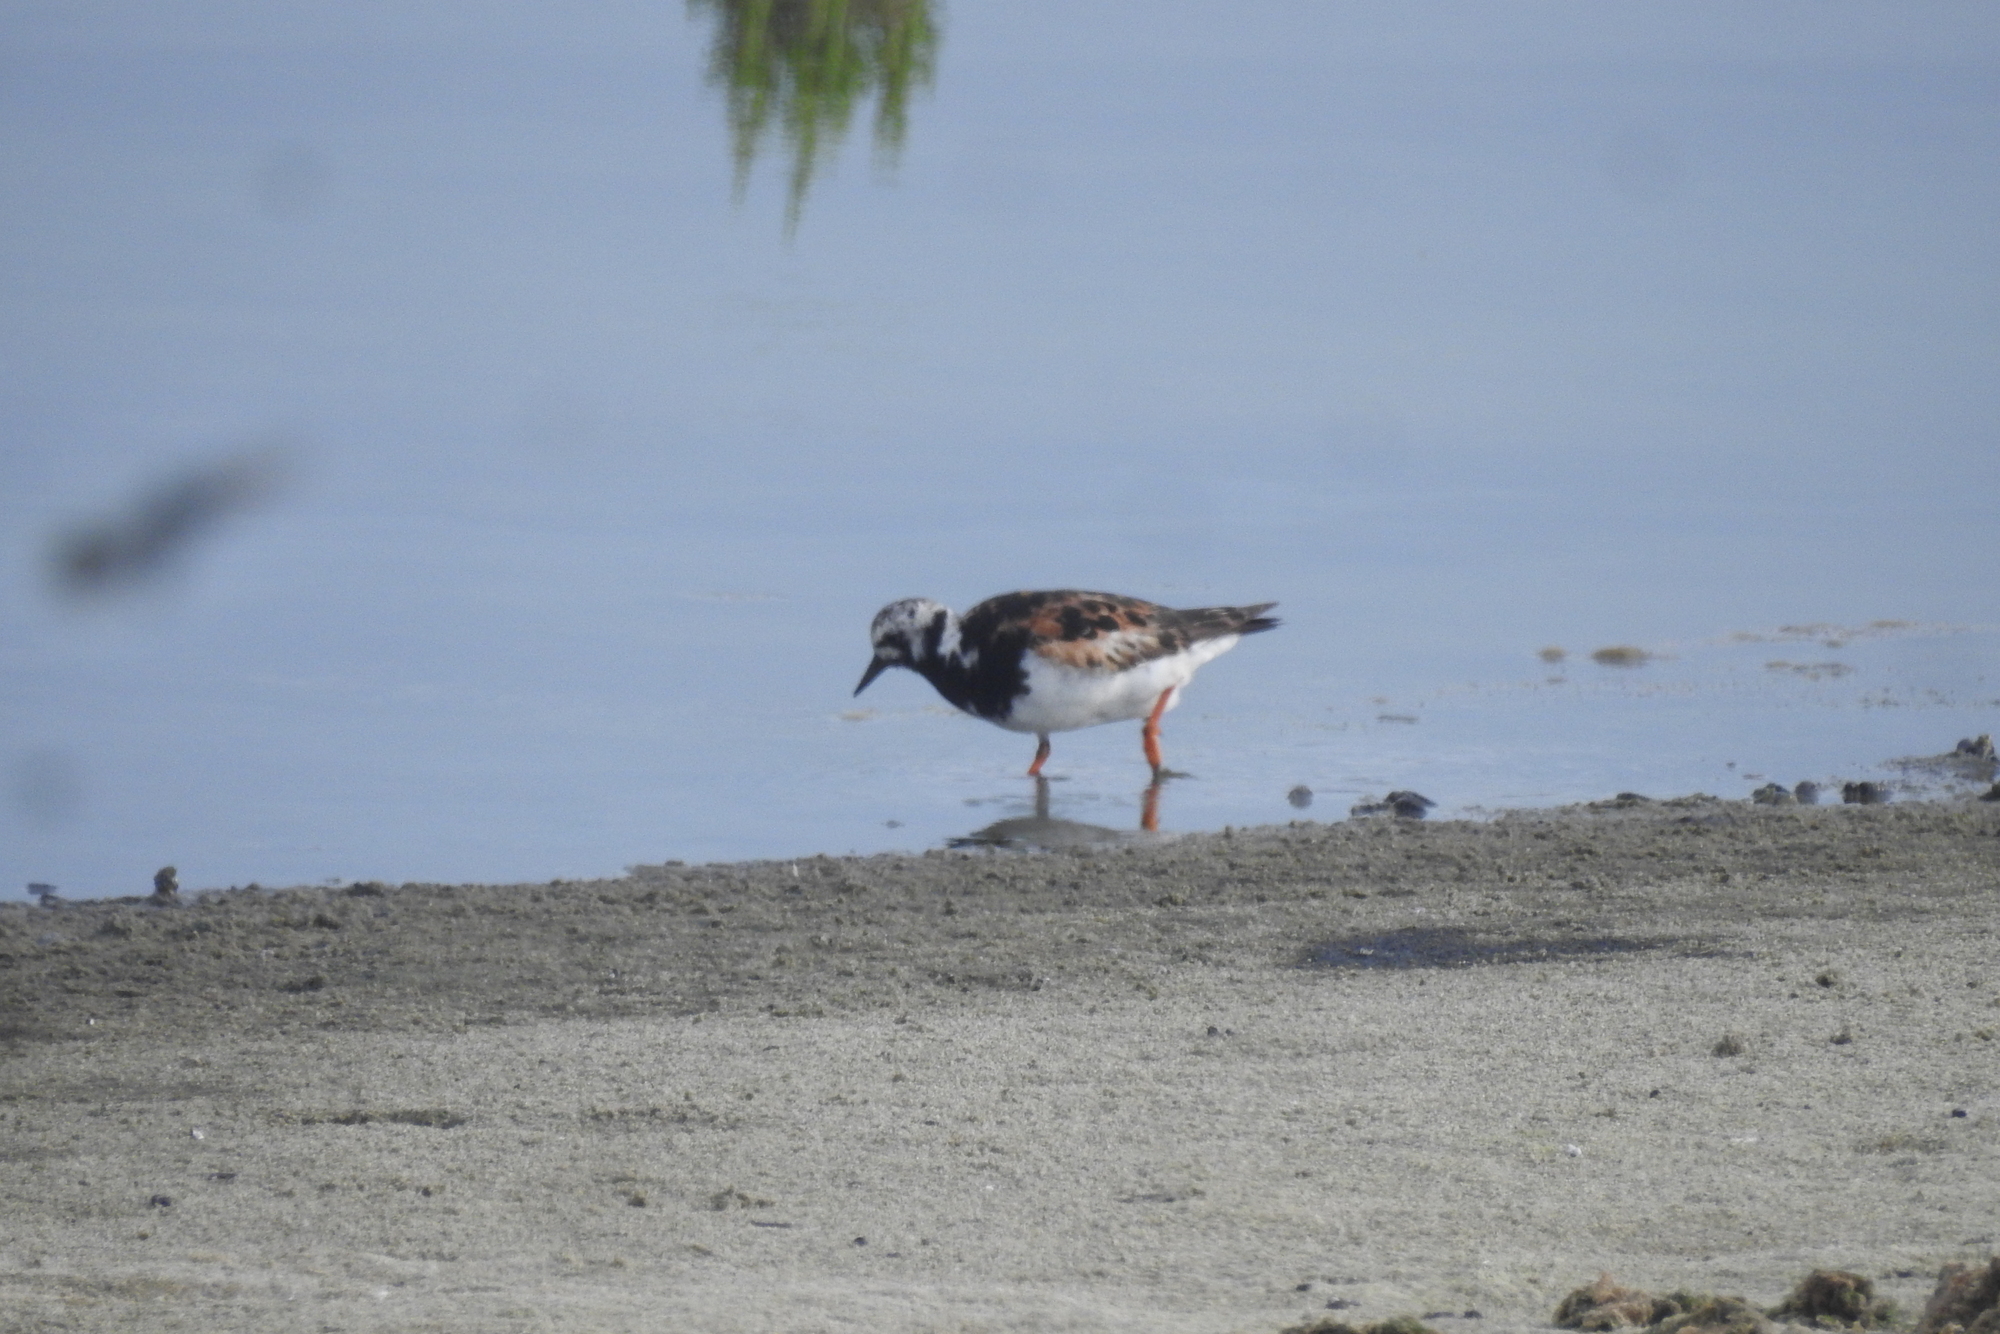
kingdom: Animalia
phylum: Chordata
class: Aves
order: Charadriiformes
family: Scolopacidae
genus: Arenaria
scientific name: Arenaria interpres
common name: Ruddy turnstone
